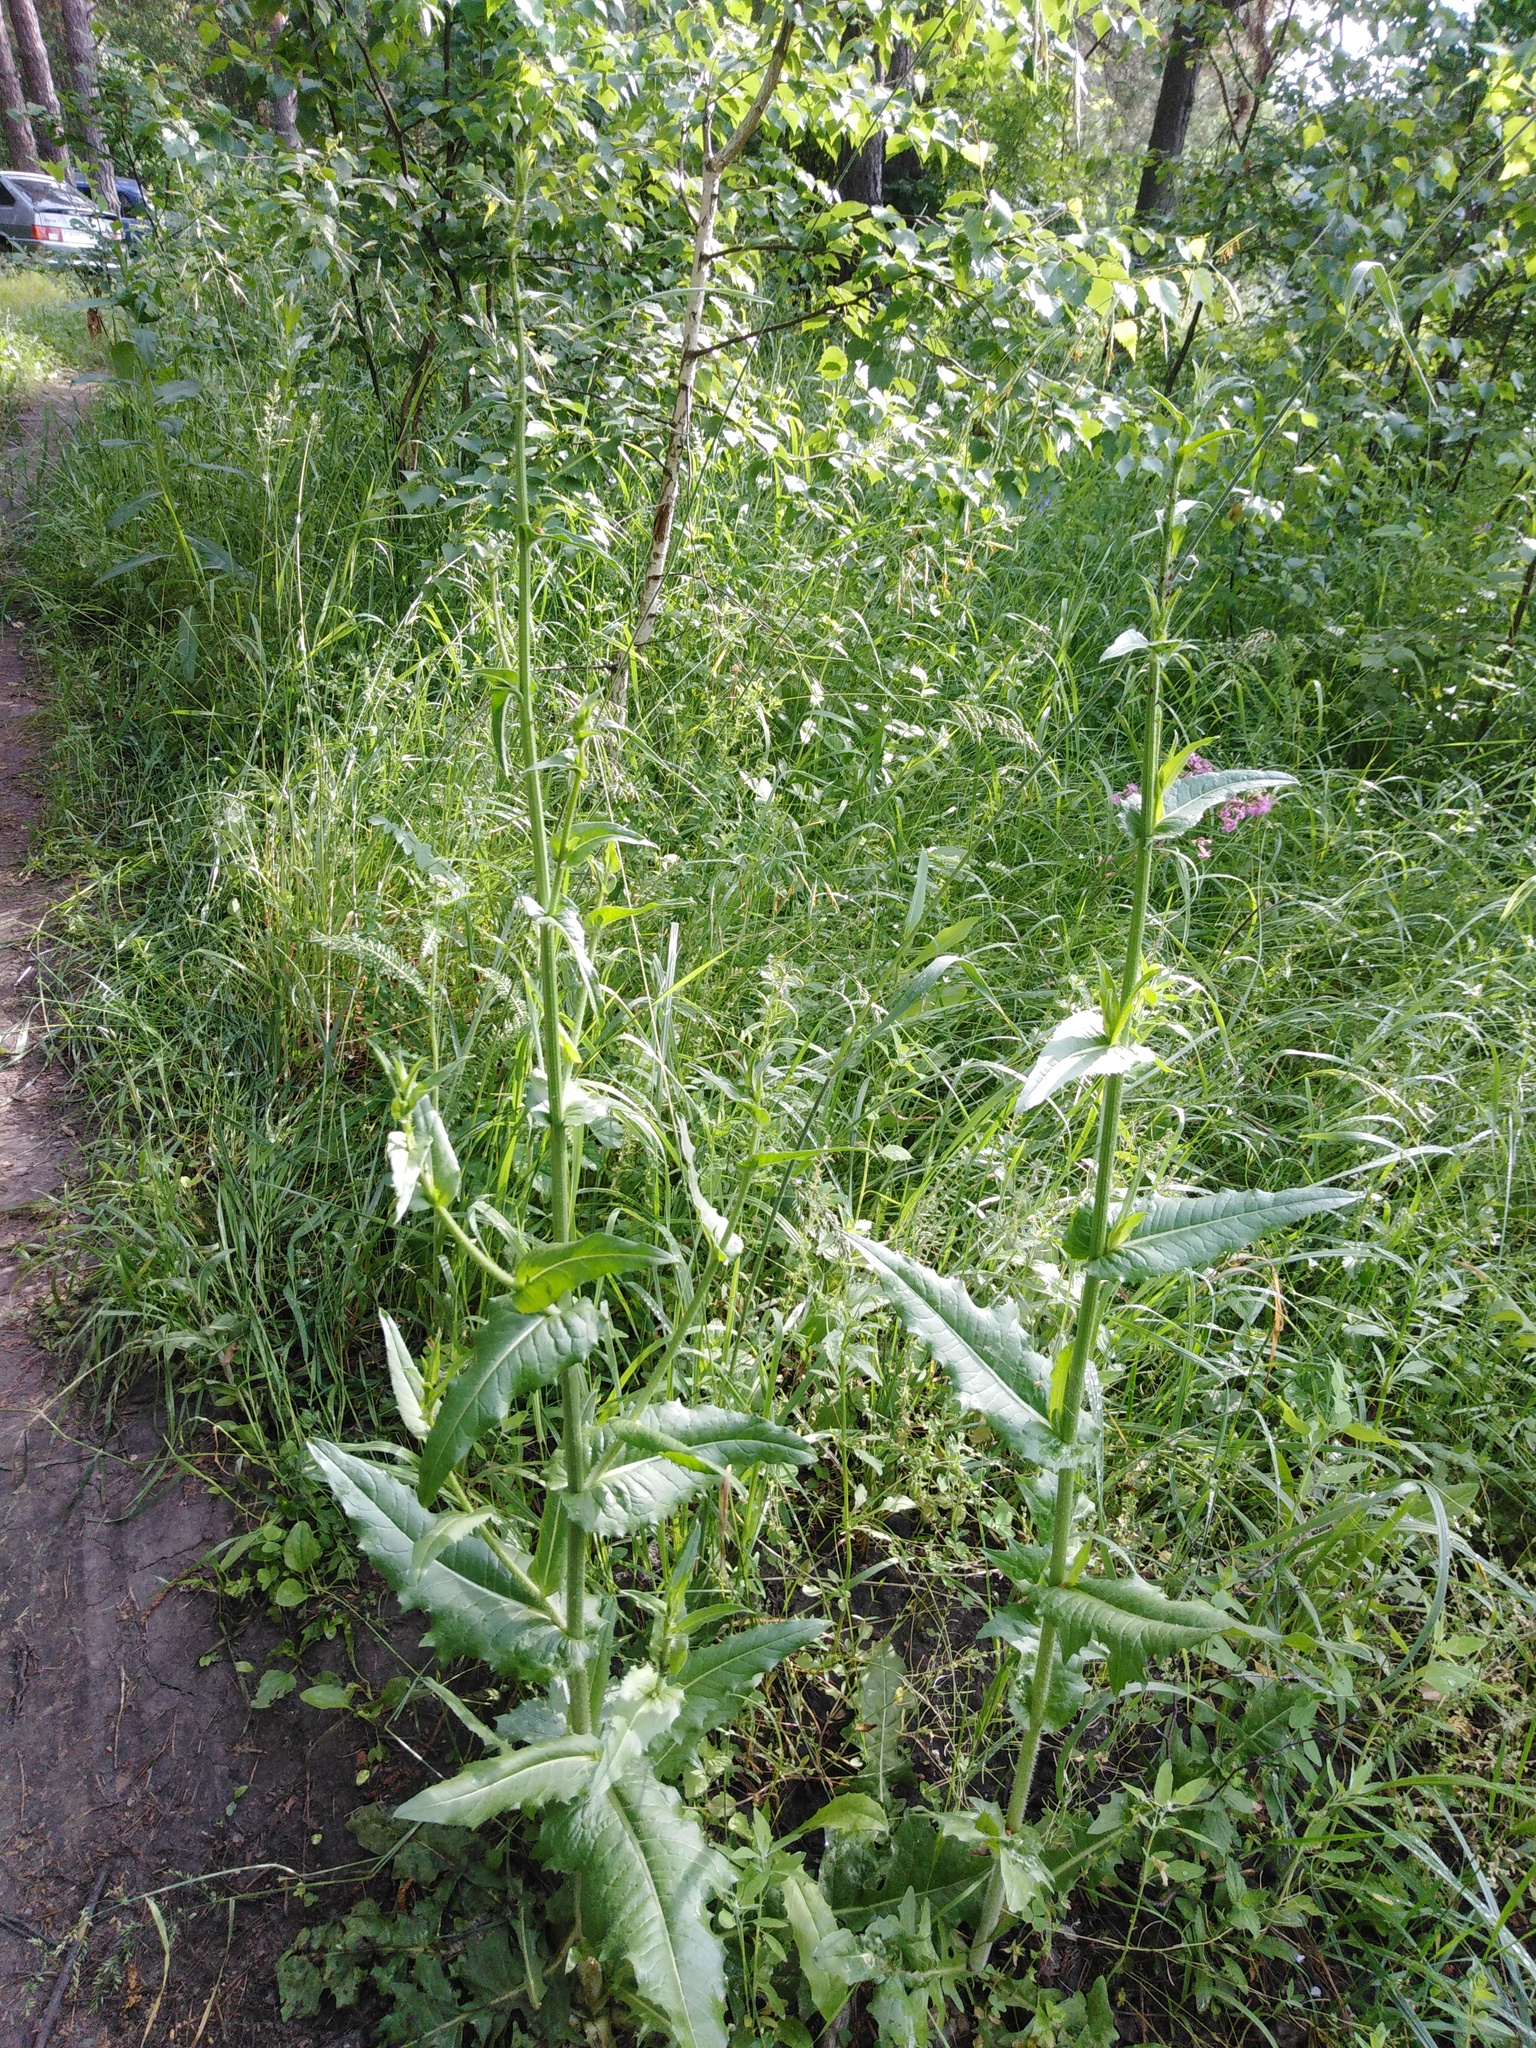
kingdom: Plantae
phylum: Tracheophyta
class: Magnoliopsida
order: Asterales
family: Asteraceae
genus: Cichorium
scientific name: Cichorium intybus
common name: Chicory
